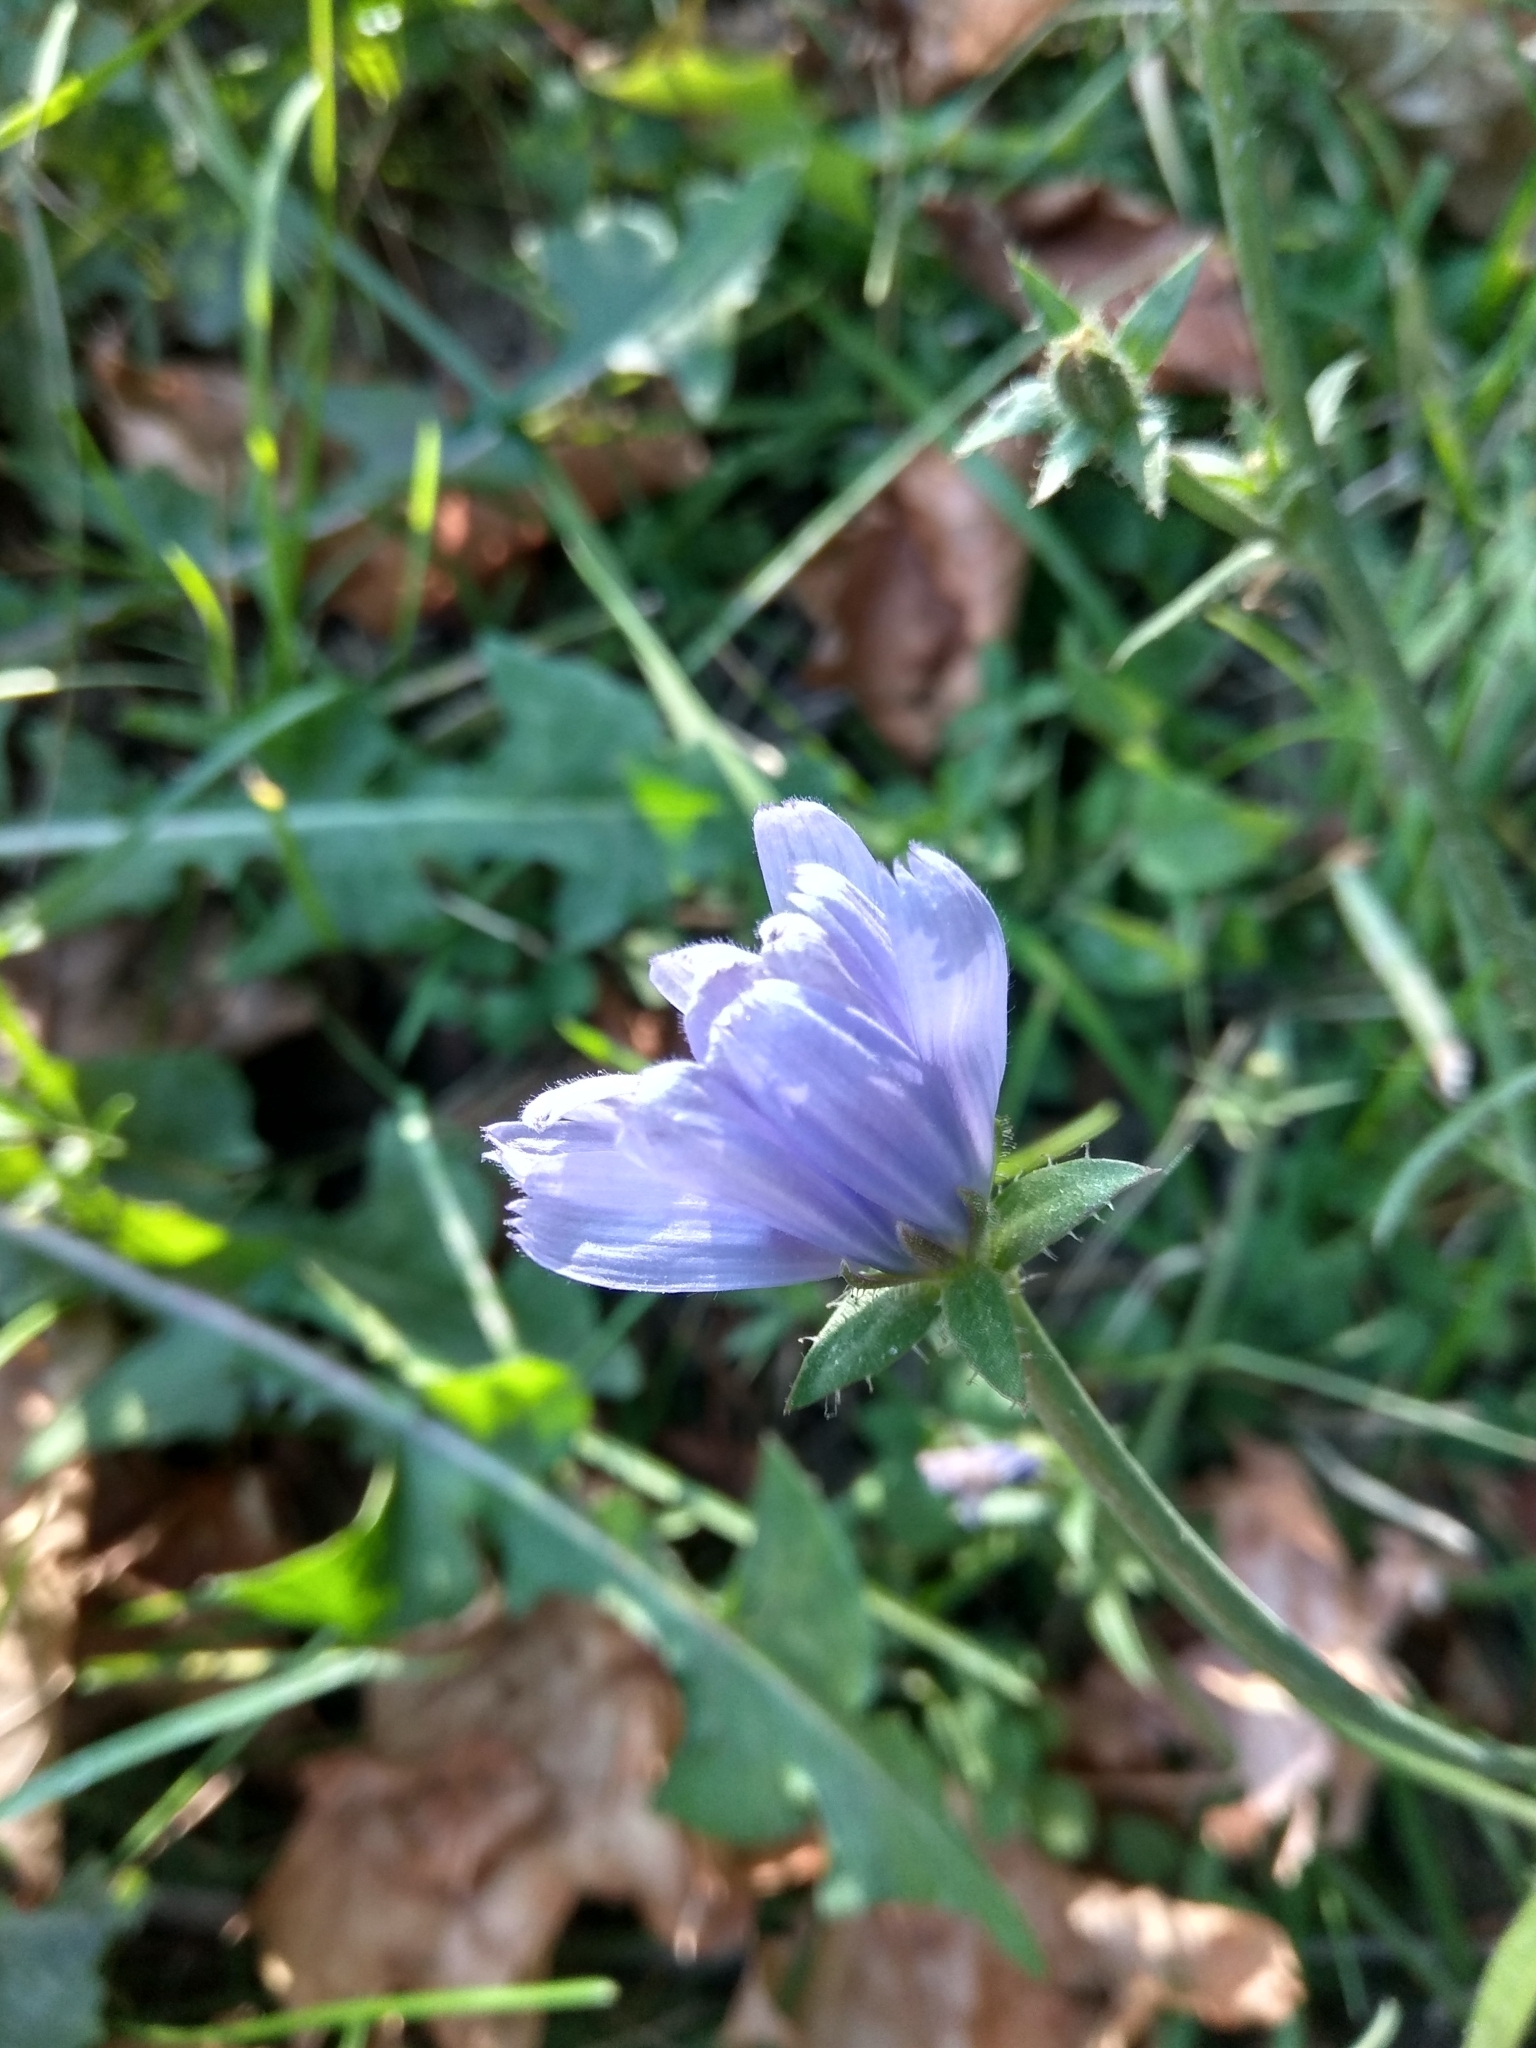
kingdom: Plantae
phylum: Tracheophyta
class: Magnoliopsida
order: Asterales
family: Asteraceae
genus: Cichorium
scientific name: Cichorium intybus
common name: Chicory
